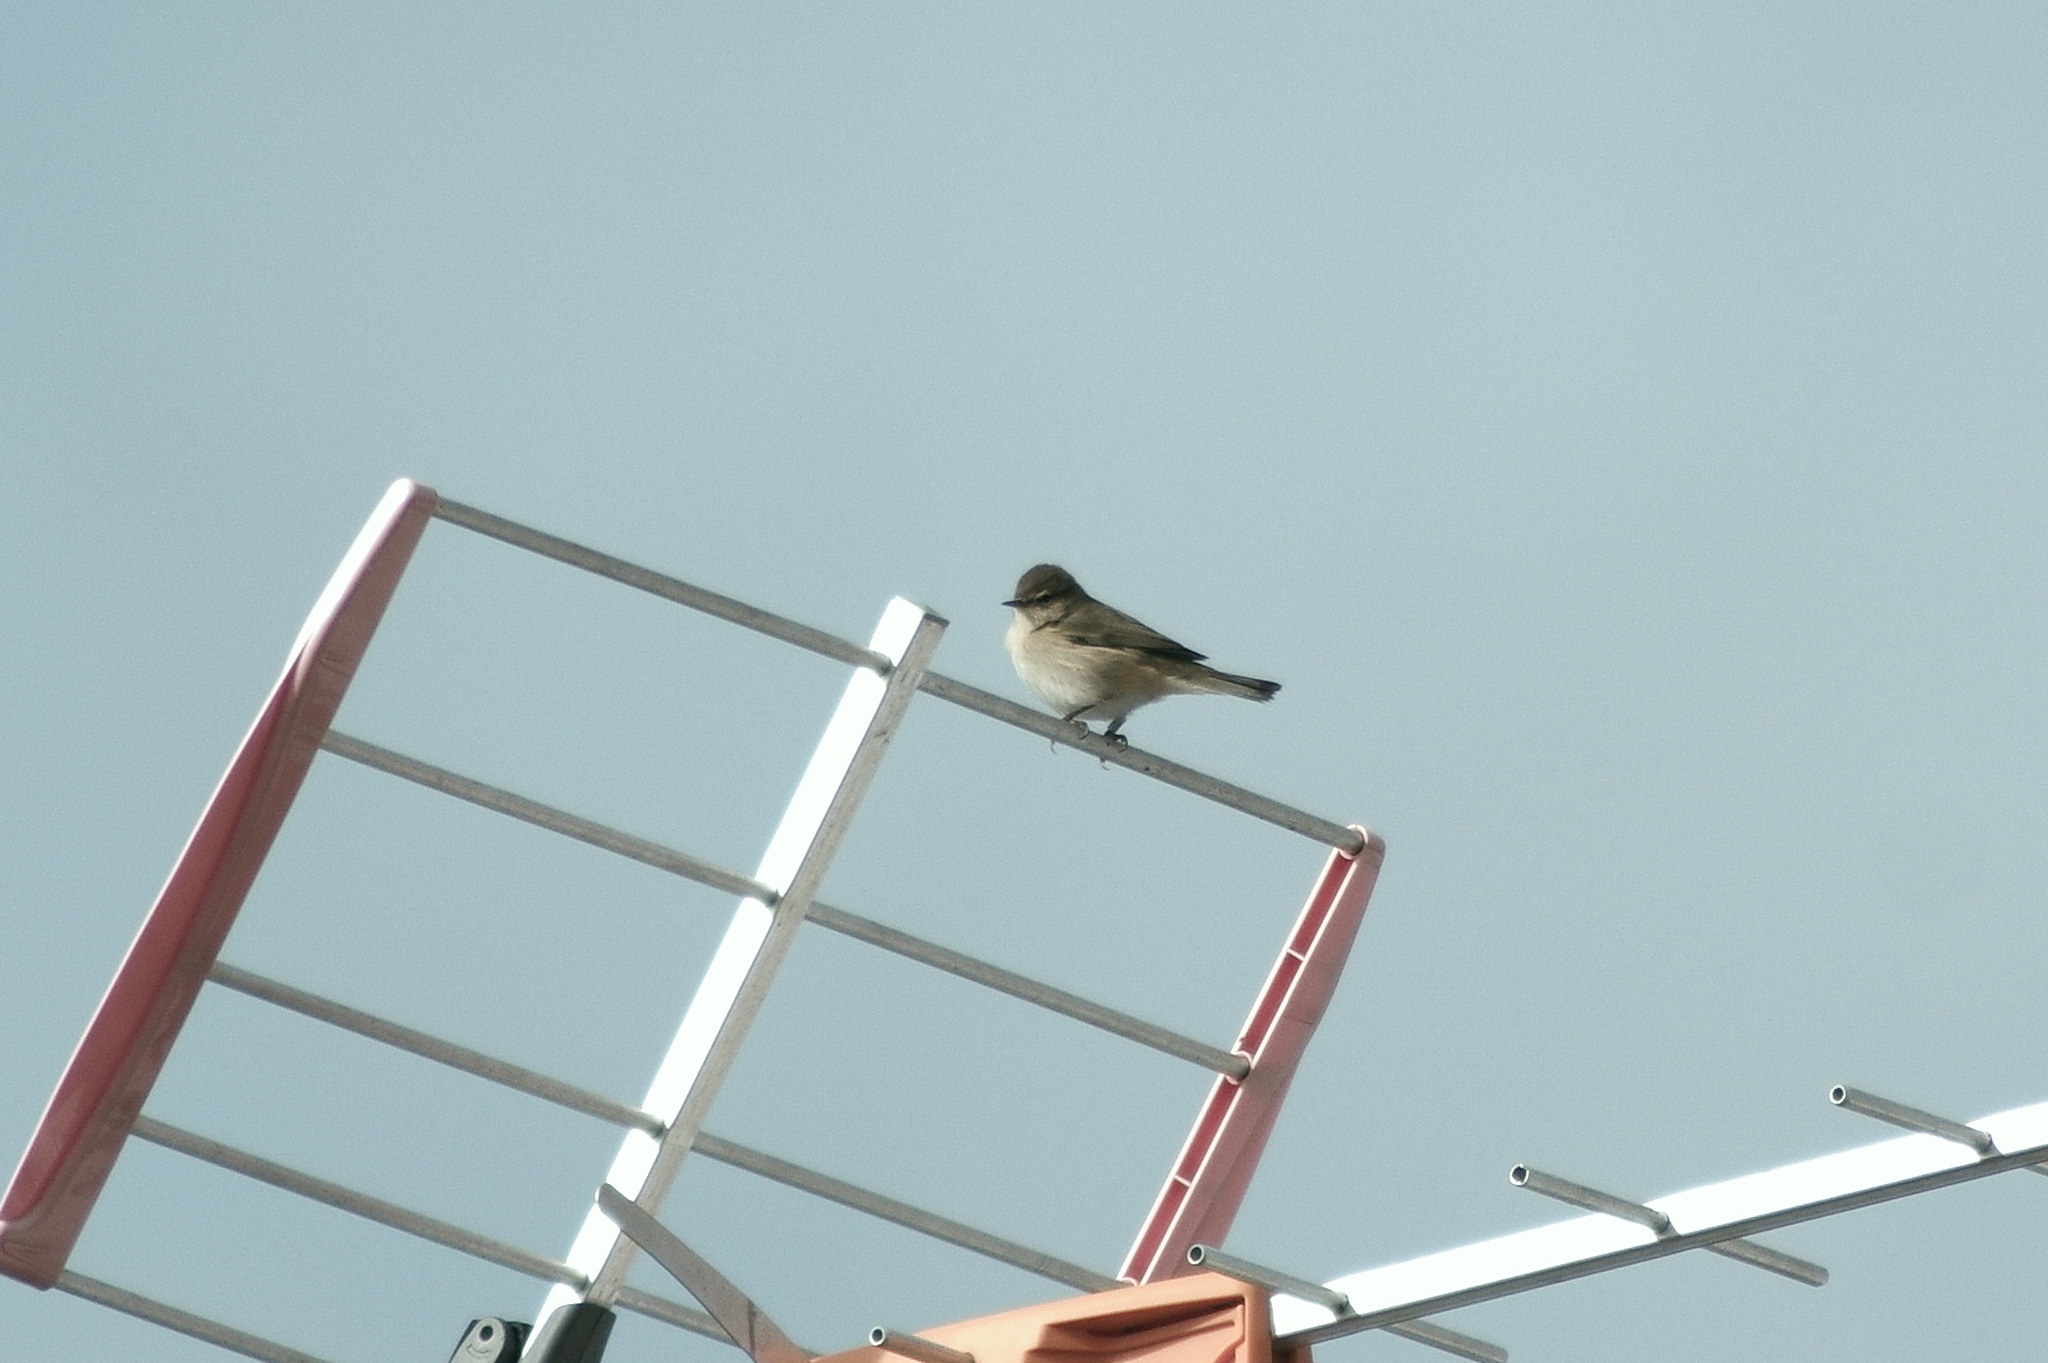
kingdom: Animalia
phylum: Chordata
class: Aves
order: Passeriformes
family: Phylloscopidae
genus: Phylloscopus
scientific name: Phylloscopus collybita
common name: Common chiffchaff
